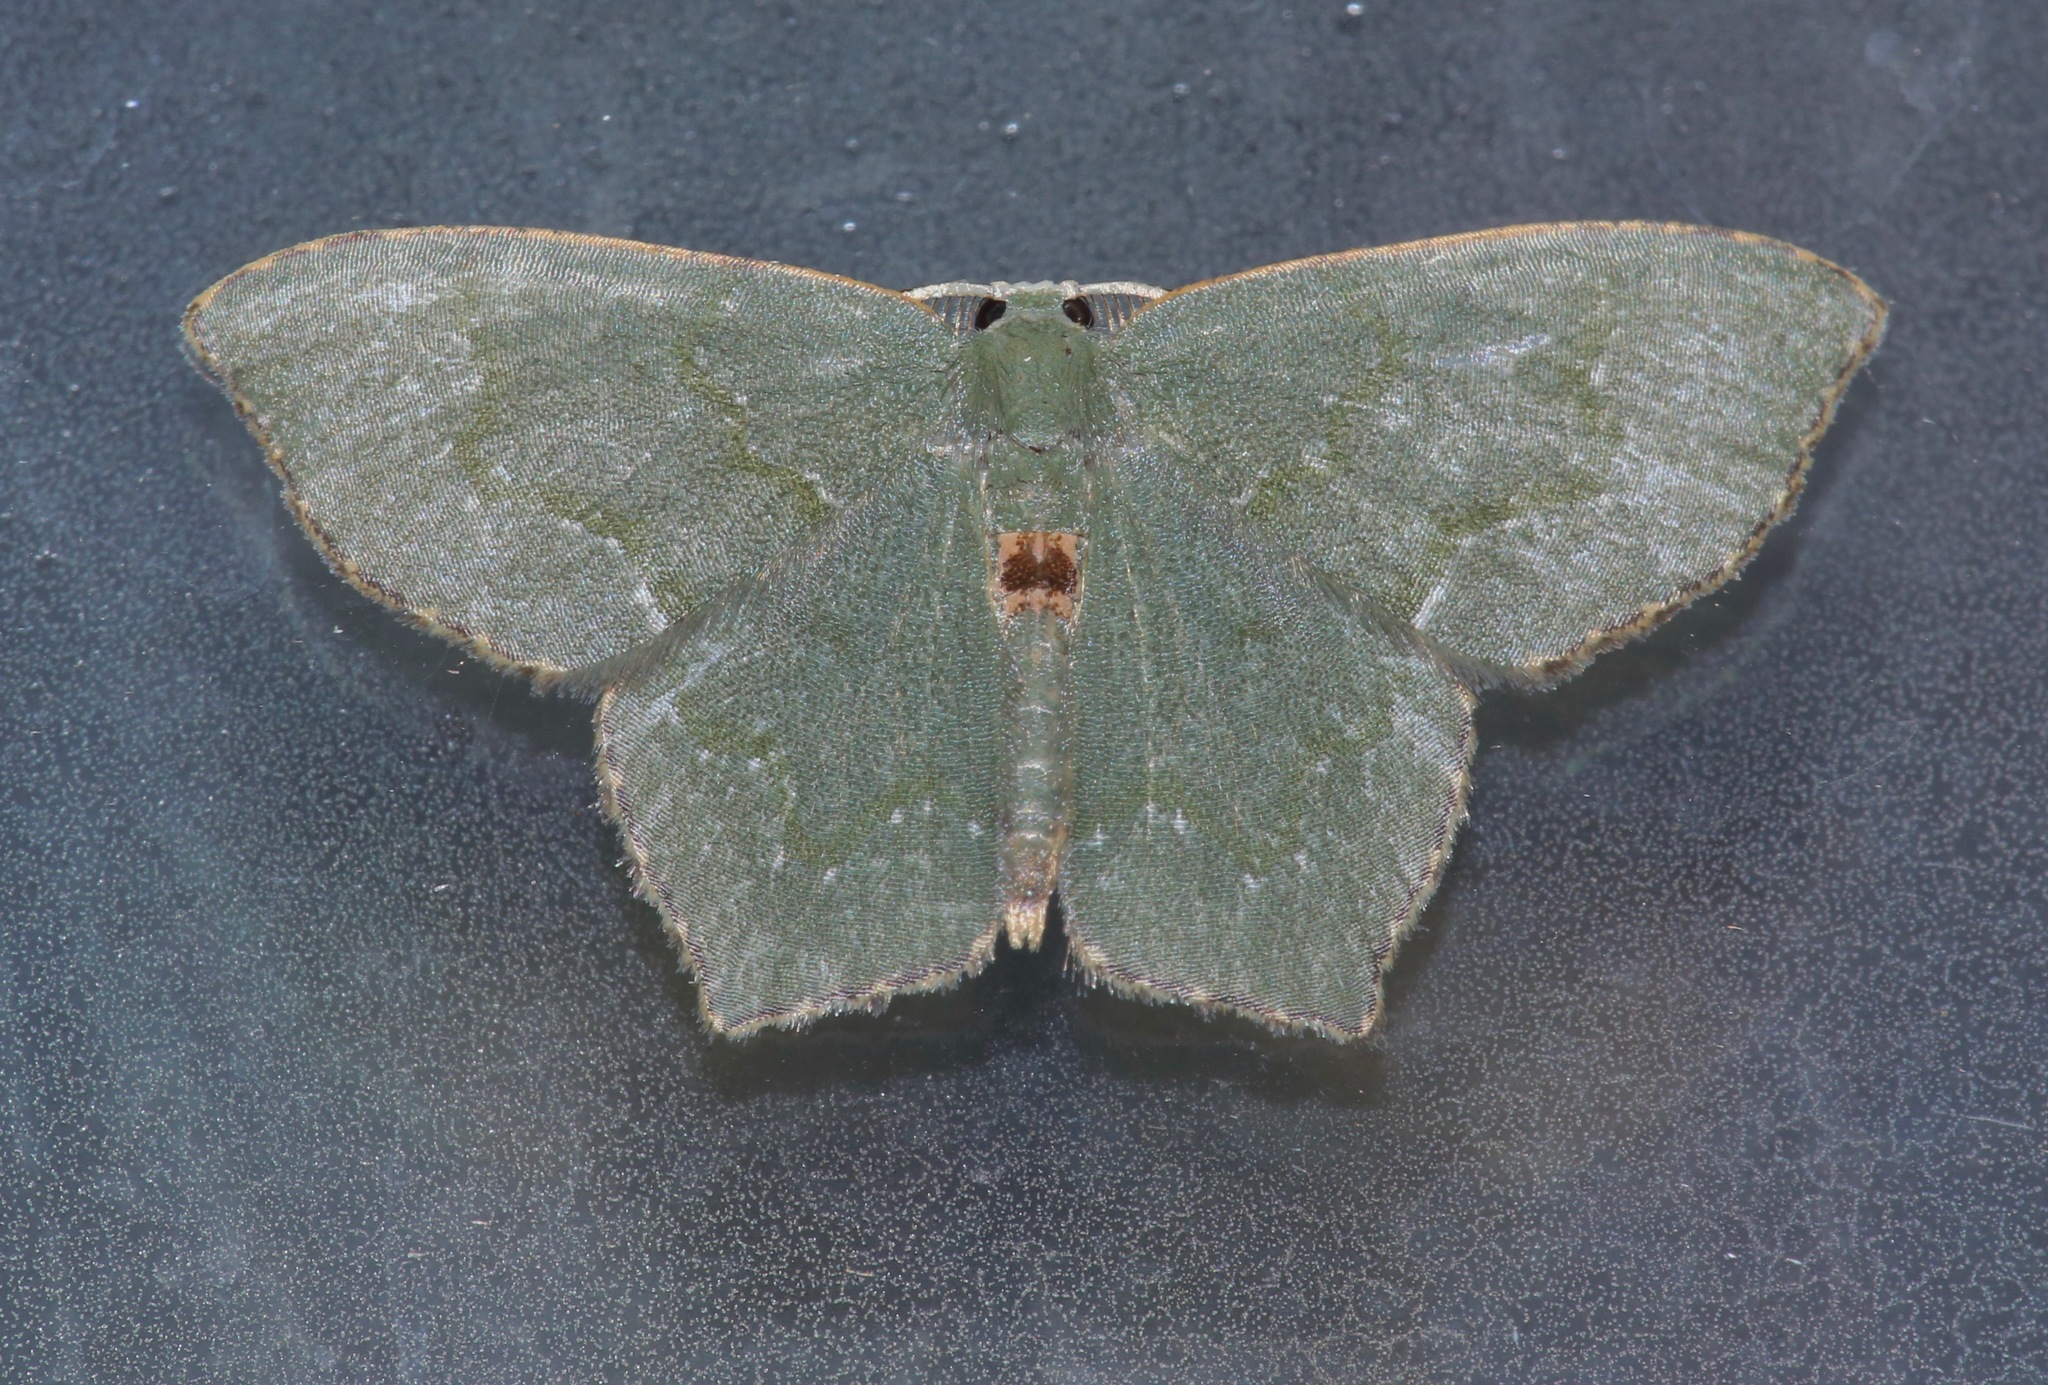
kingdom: Animalia
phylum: Arthropoda
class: Insecta
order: Lepidoptera
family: Geometridae
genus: Chloropteryx
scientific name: Chloropteryx tepperaria
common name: Angle winged emerald moth
